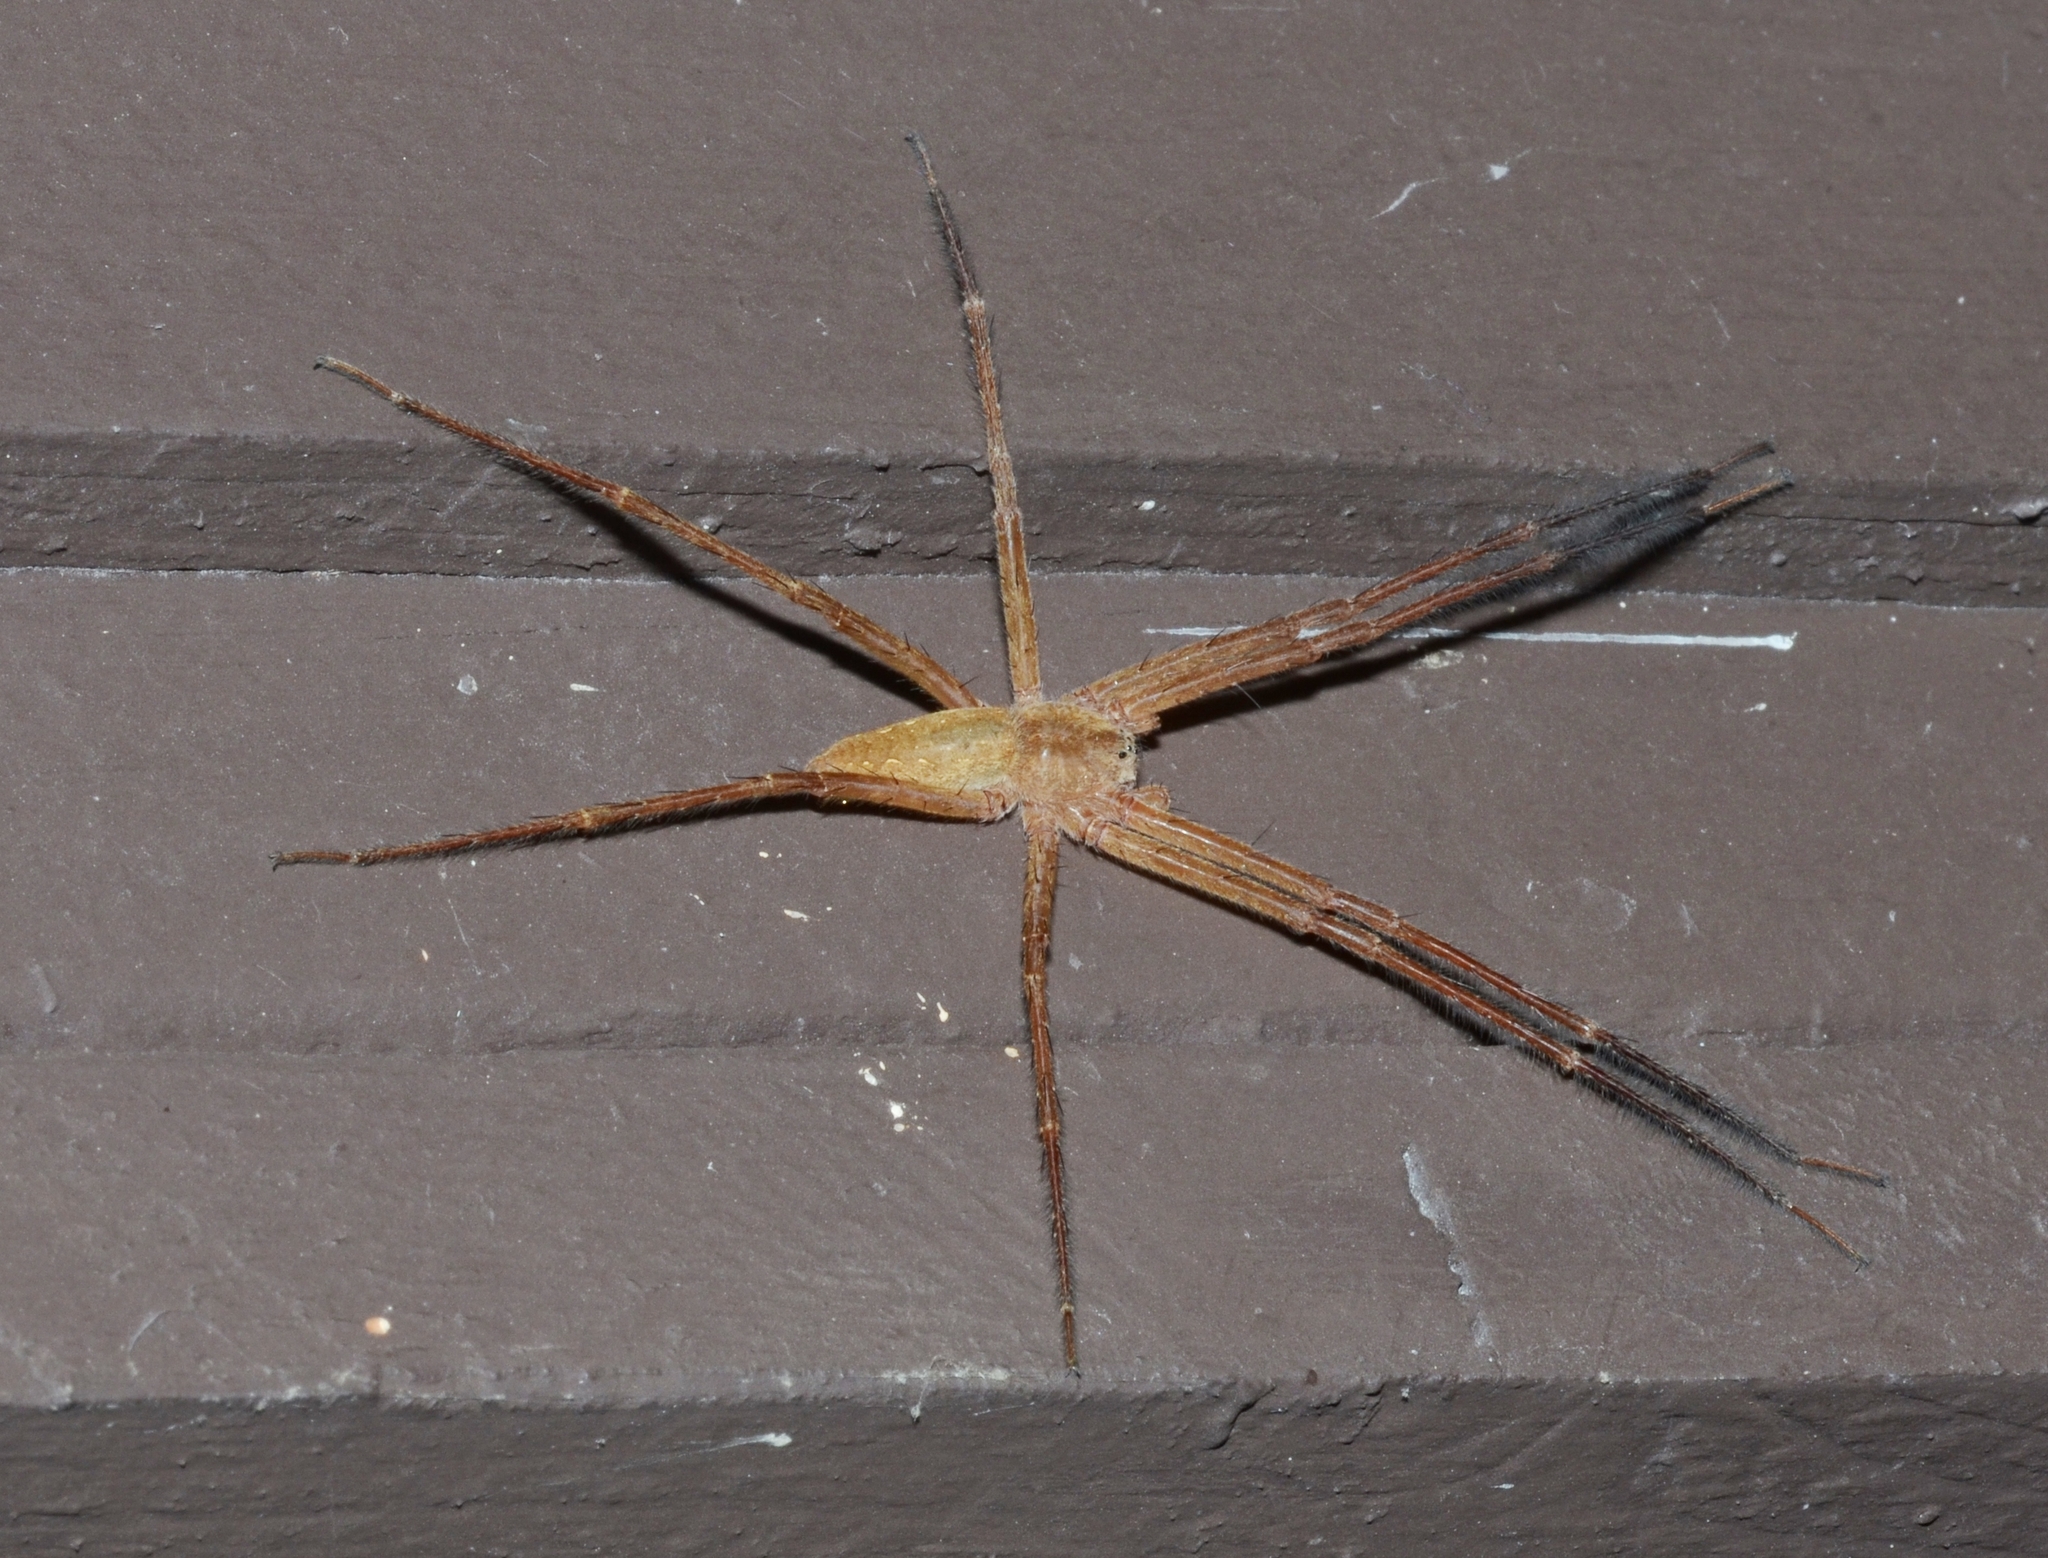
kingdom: Animalia
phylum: Arthropoda
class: Arachnida
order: Araneae
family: Pisauridae
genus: Pisaurina
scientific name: Pisaurina mira
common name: American nursery web spider
